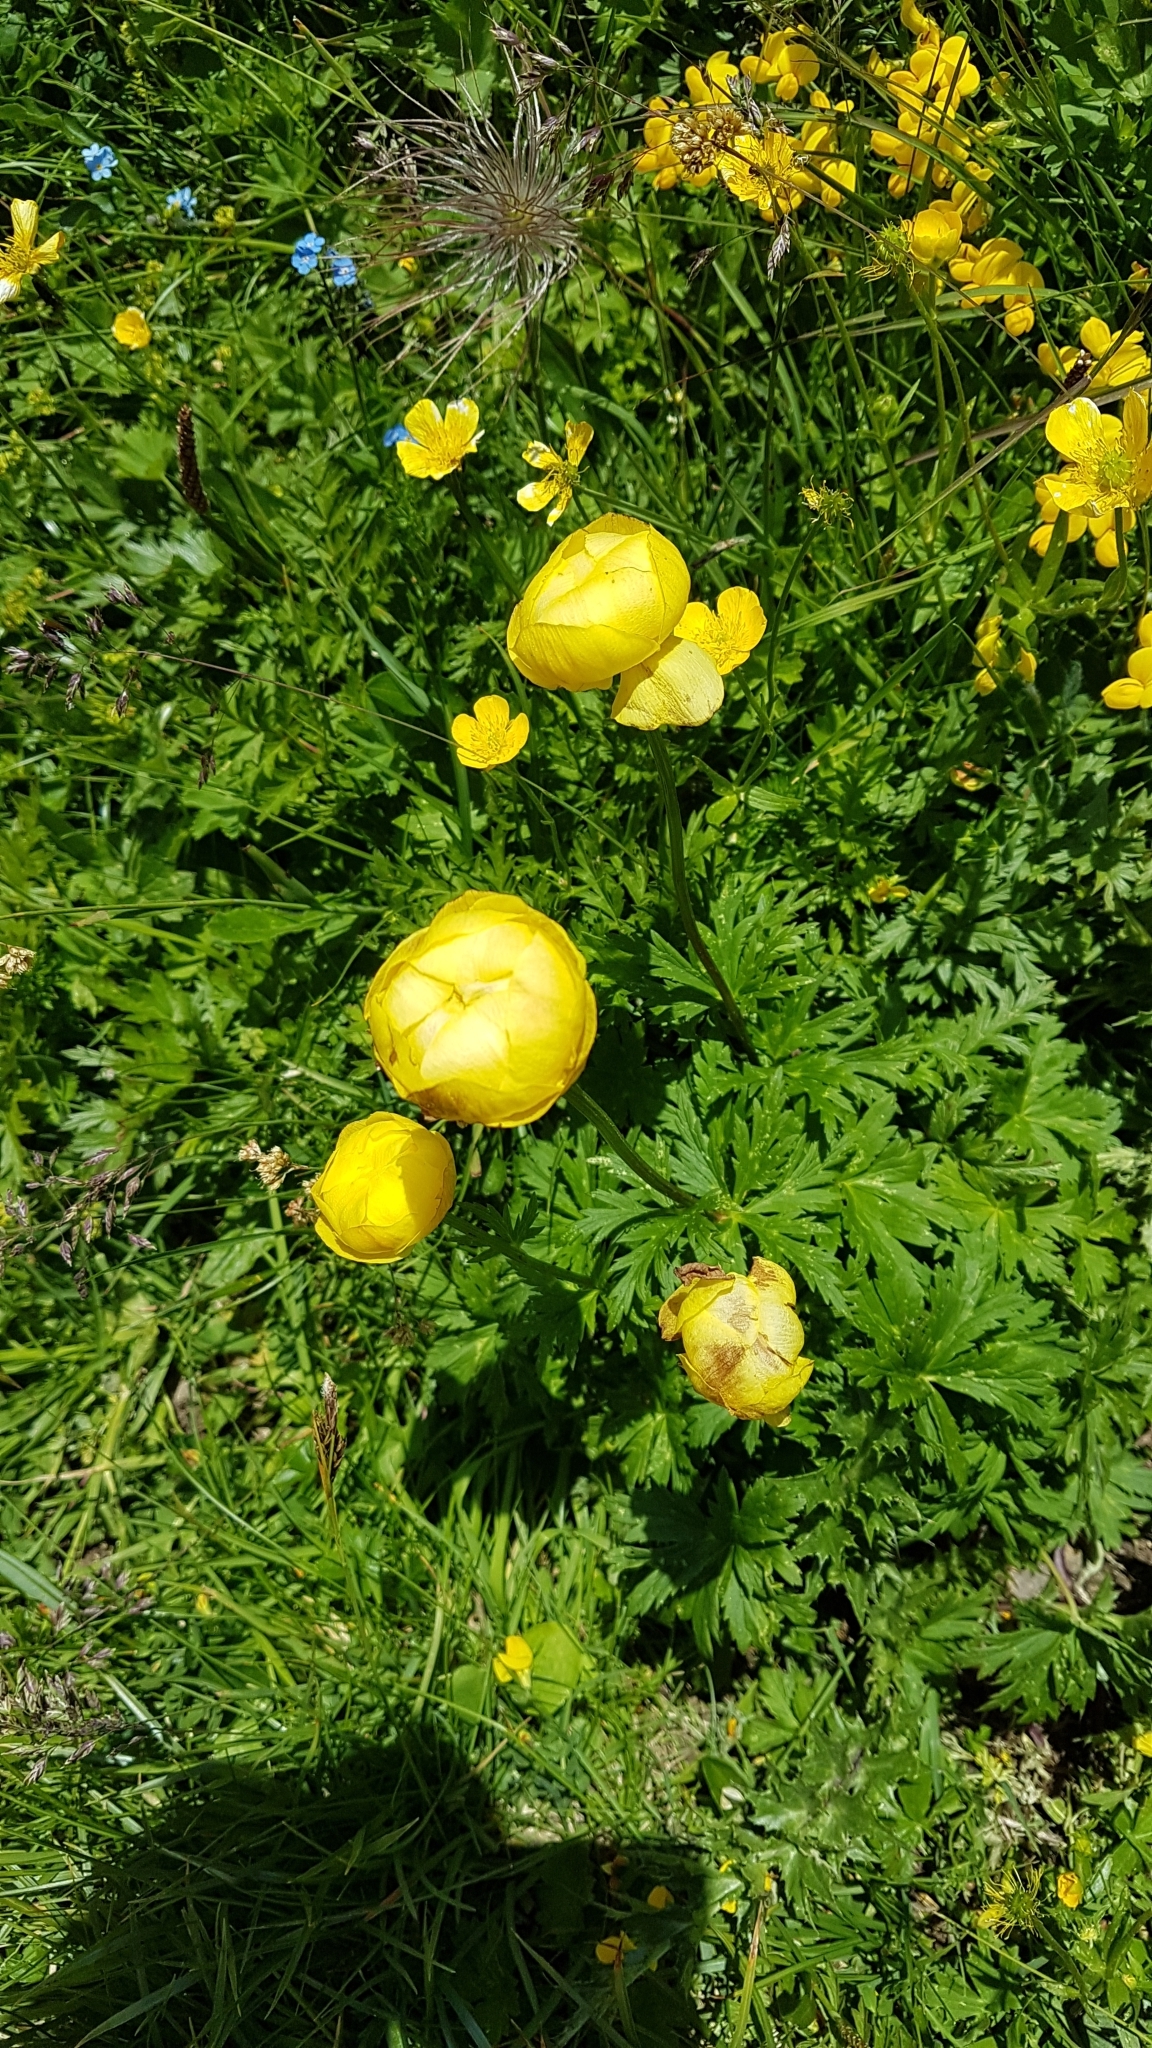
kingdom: Plantae
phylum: Tracheophyta
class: Magnoliopsida
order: Ranunculales
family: Ranunculaceae
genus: Trollius
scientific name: Trollius europaeus
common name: European globeflower
